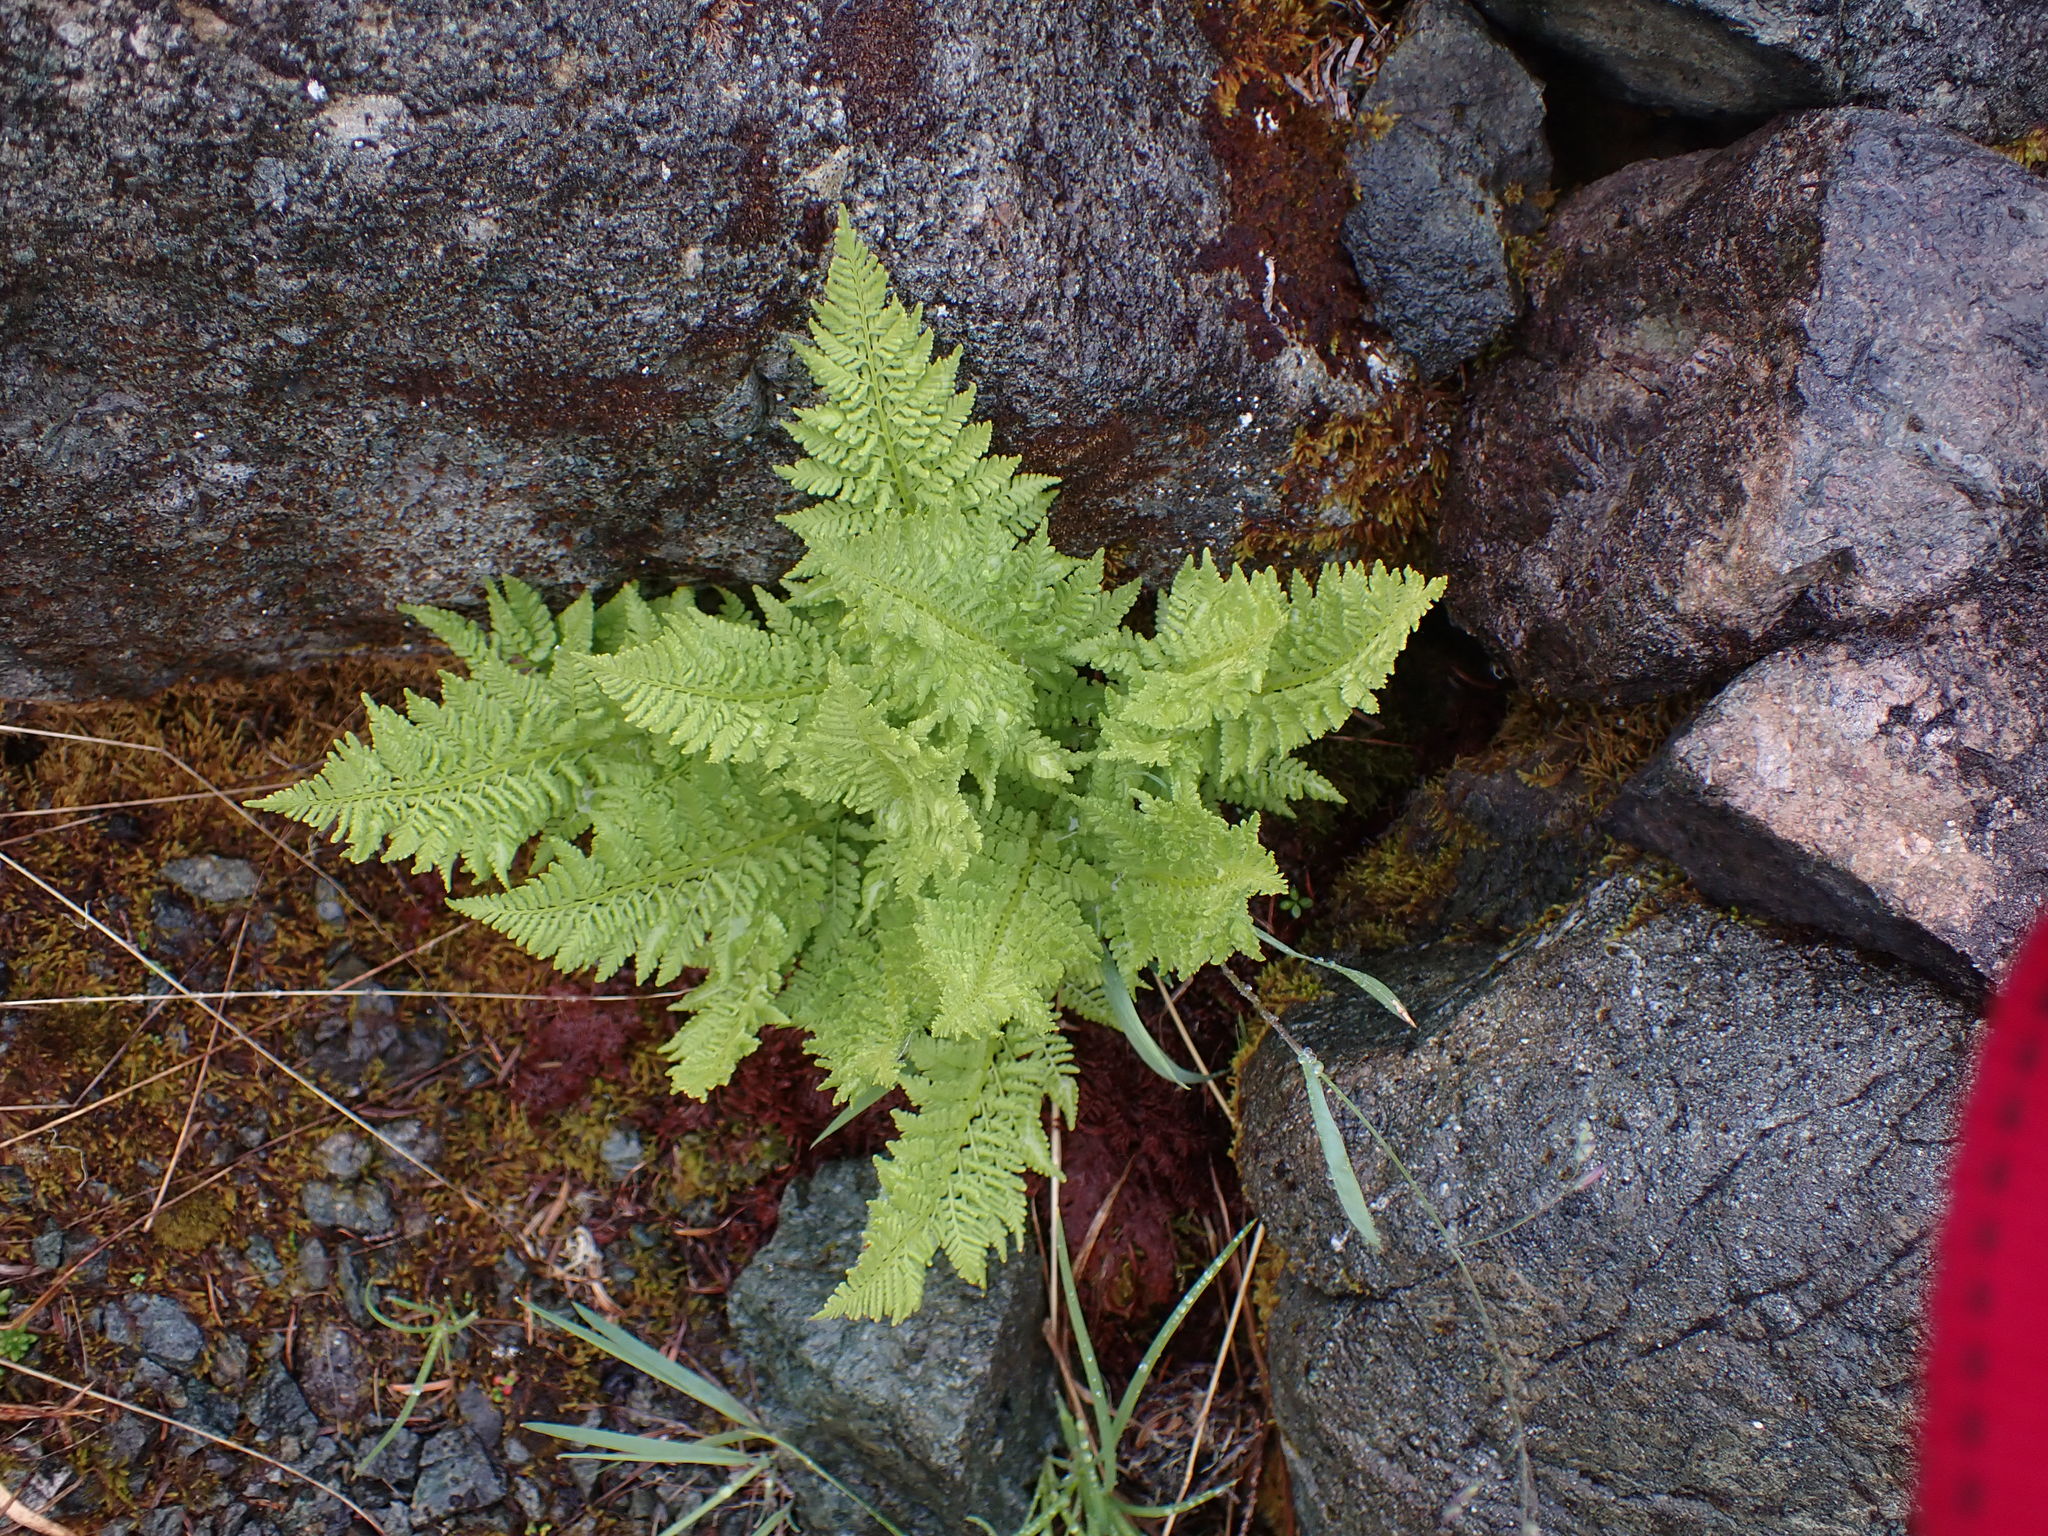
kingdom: Plantae
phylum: Tracheophyta
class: Polypodiopsida
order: Polypodiales
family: Athyriaceae
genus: Athyrium
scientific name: Athyrium americanum
